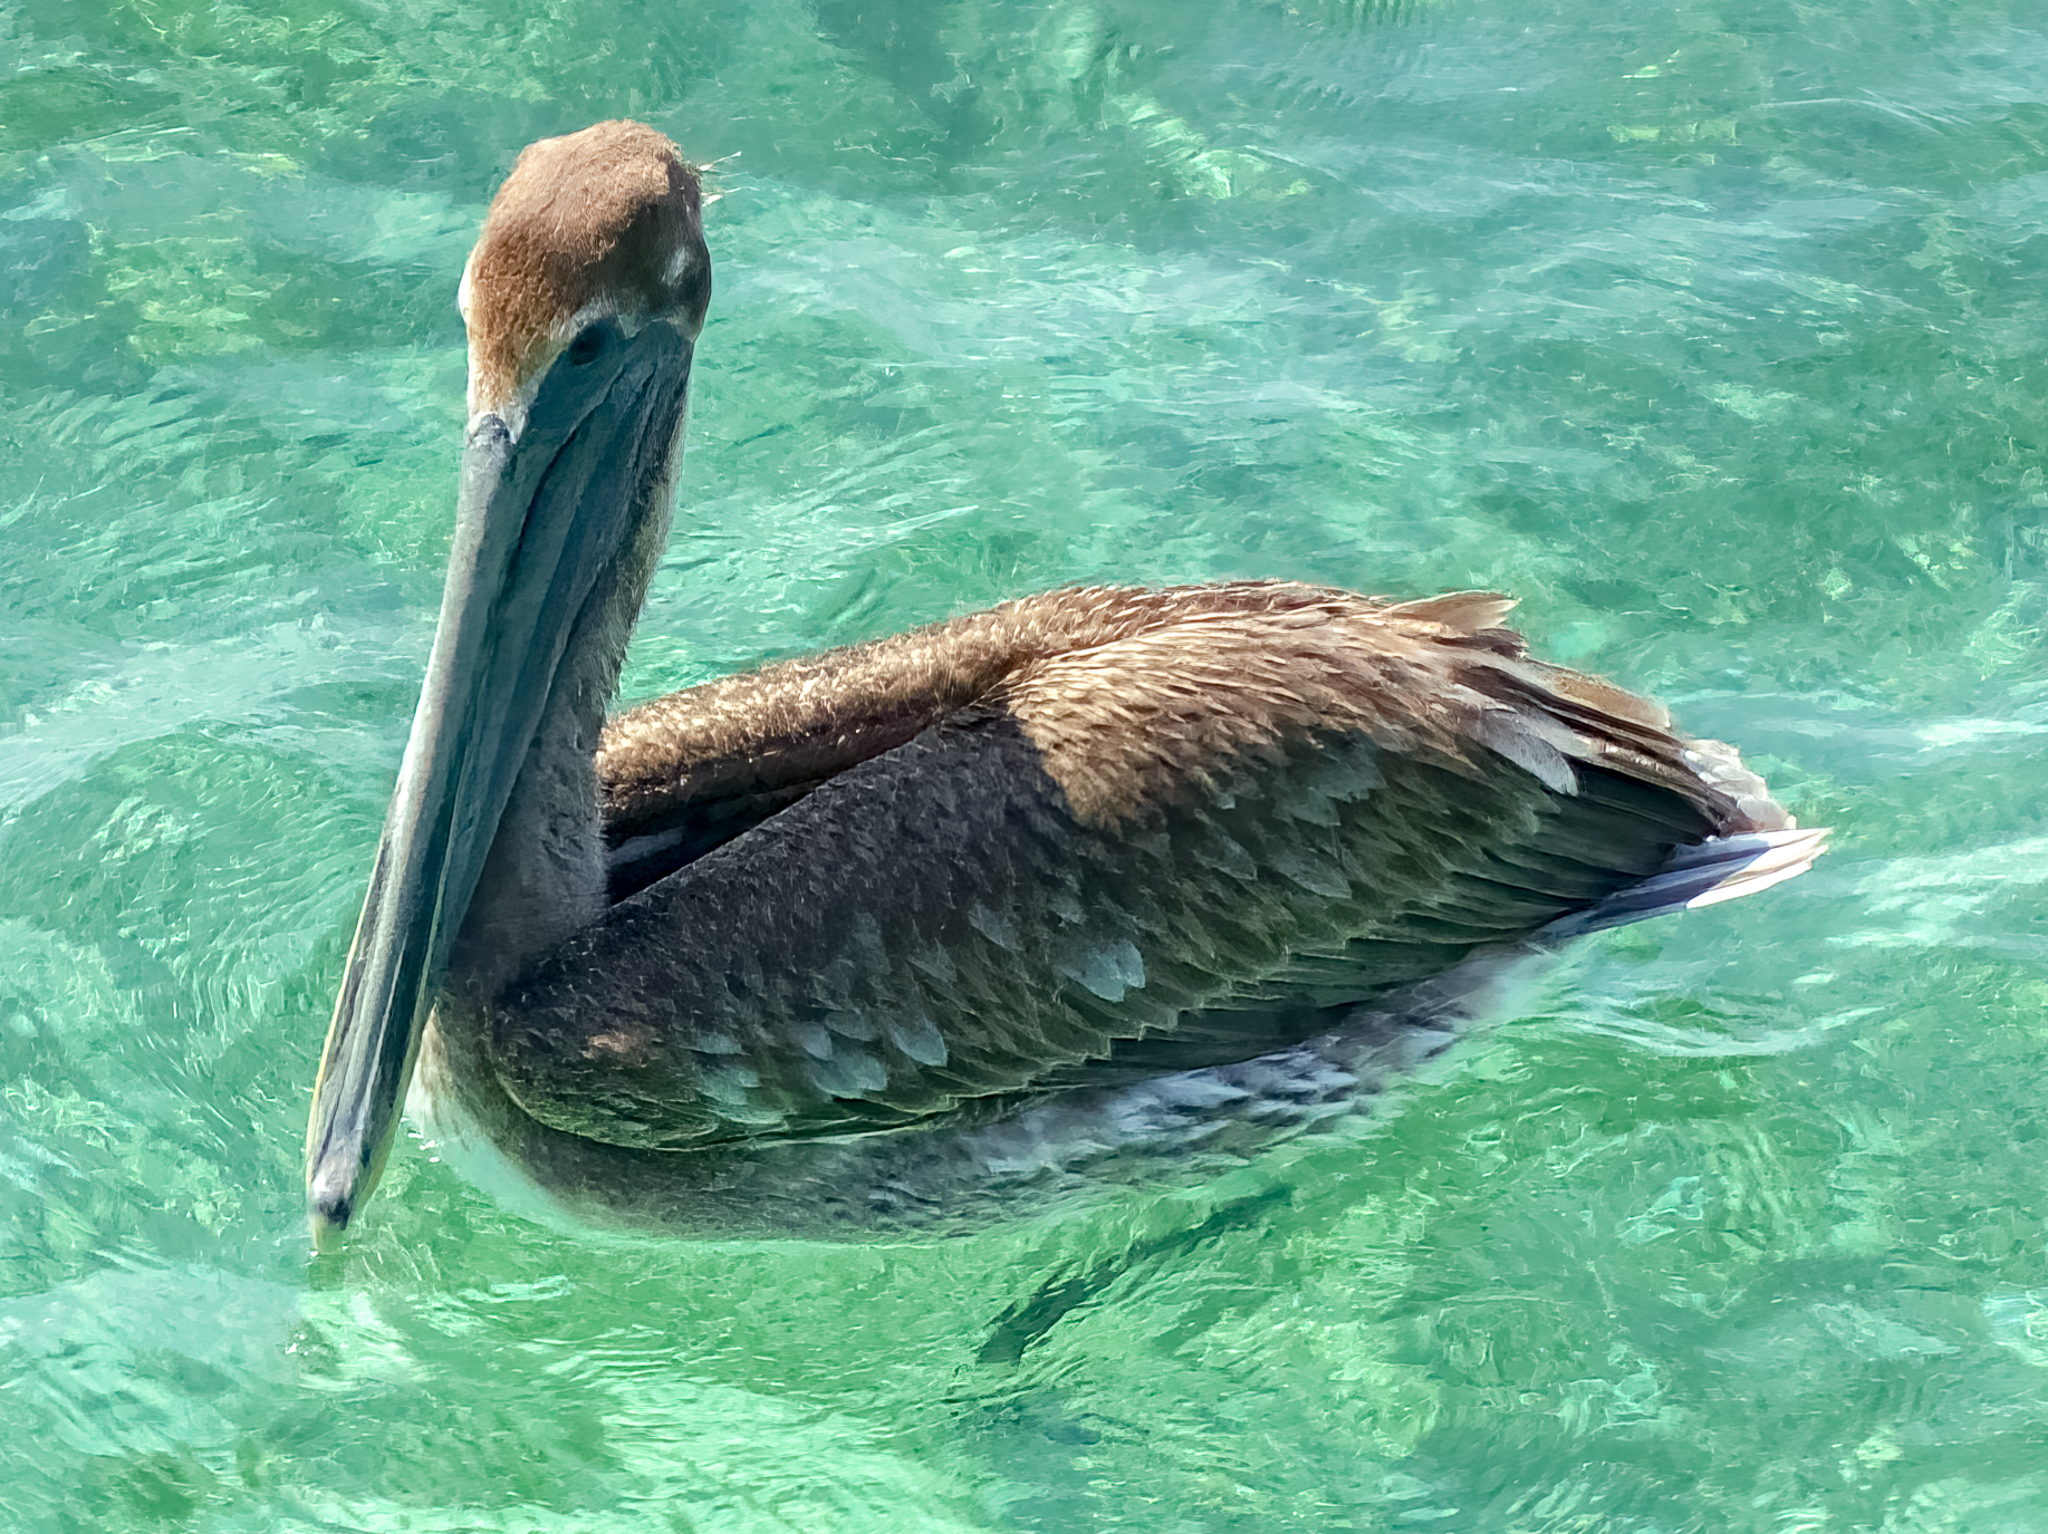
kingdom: Animalia
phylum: Chordata
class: Aves
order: Pelecaniformes
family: Pelecanidae
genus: Pelecanus
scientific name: Pelecanus occidentalis
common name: Brown pelican
